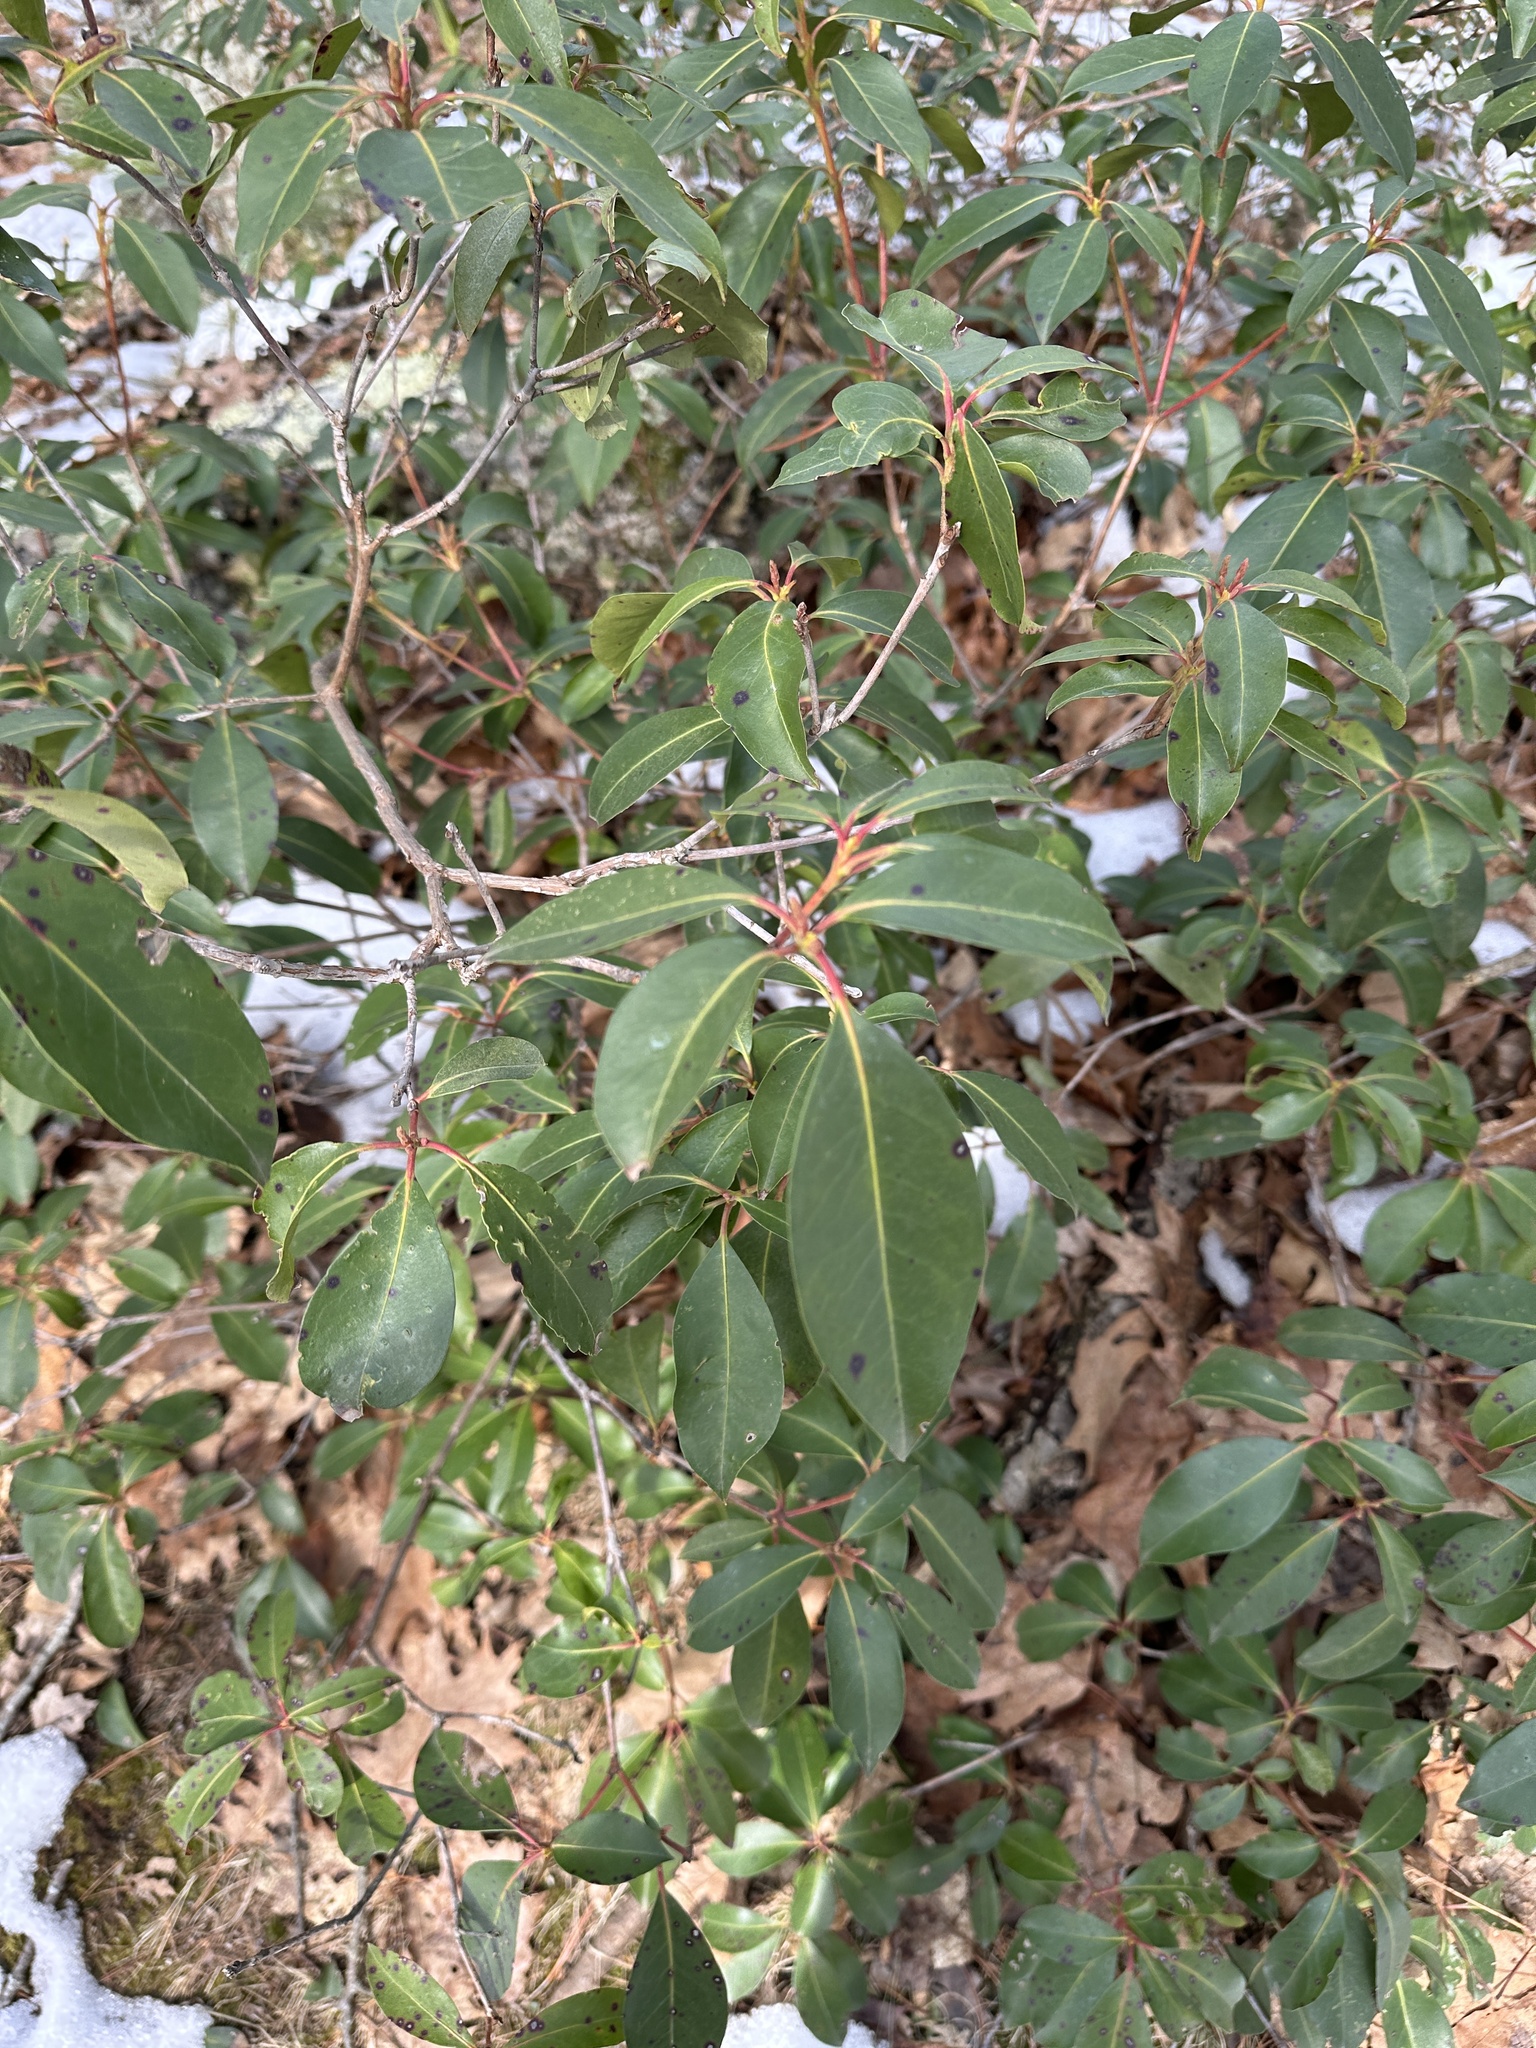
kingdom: Plantae
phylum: Tracheophyta
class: Magnoliopsida
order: Ericales
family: Ericaceae
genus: Kalmia
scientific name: Kalmia latifolia
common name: Mountain-laurel
